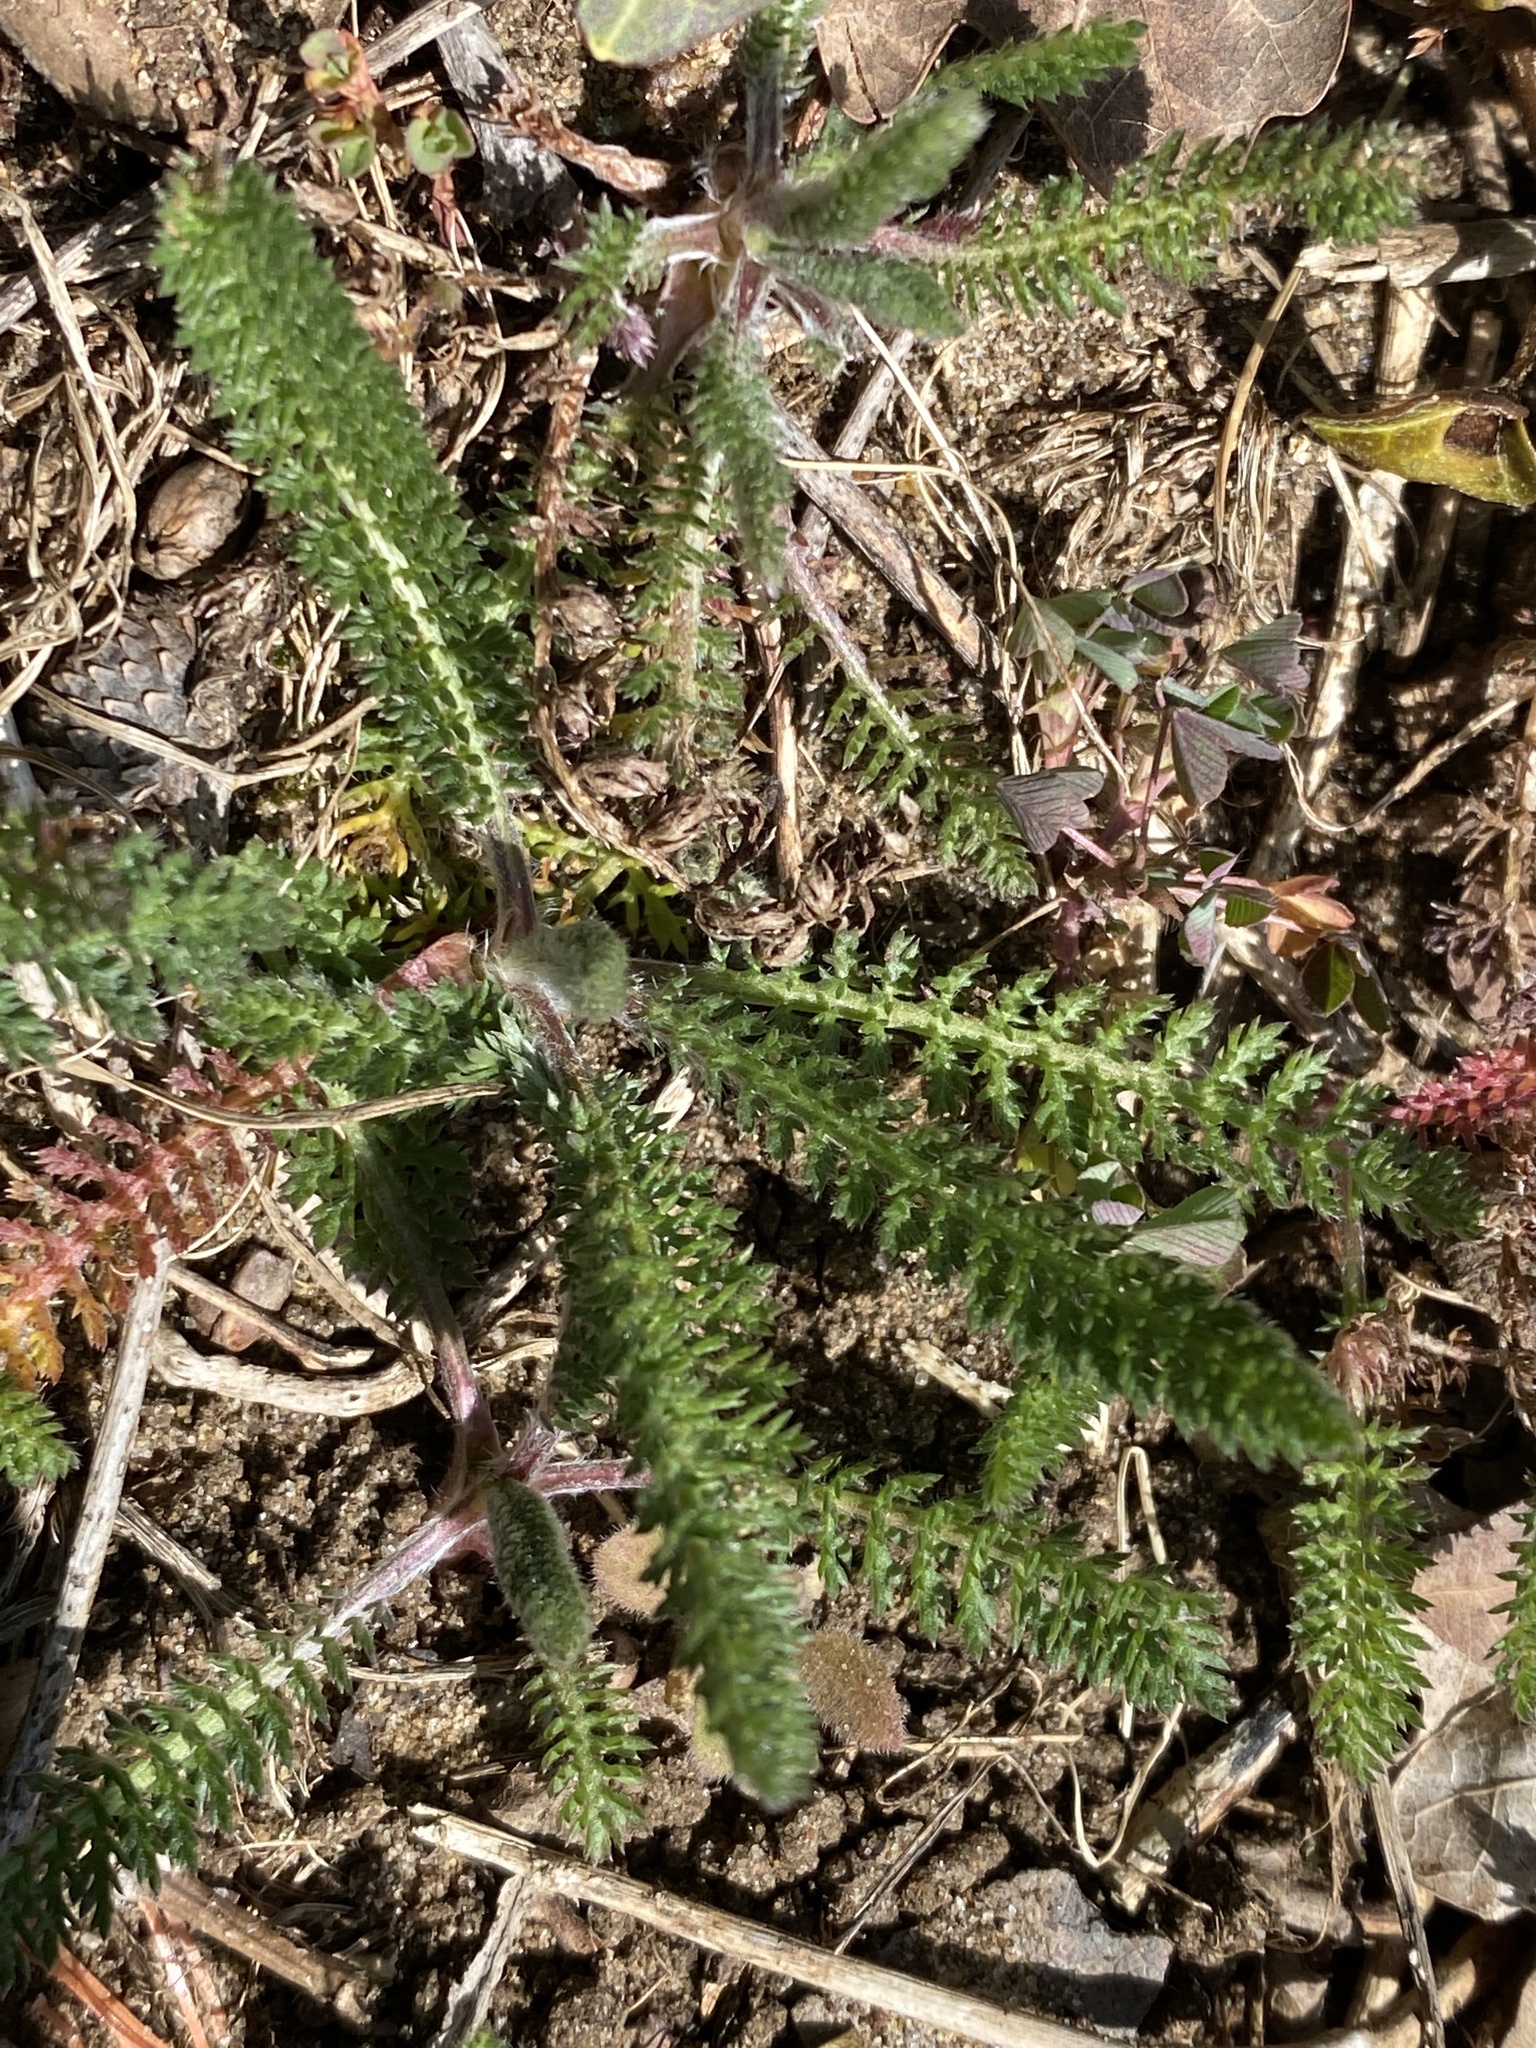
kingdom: Plantae
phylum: Tracheophyta
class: Magnoliopsida
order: Asterales
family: Asteraceae
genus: Achillea
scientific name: Achillea millefolium
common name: Yarrow
